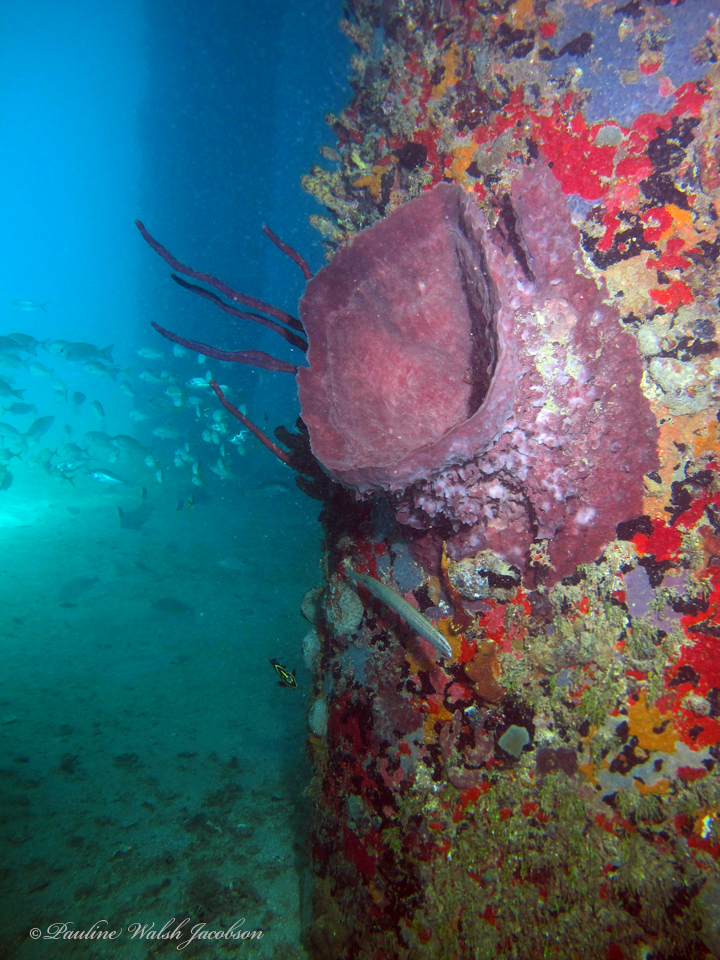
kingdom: Animalia
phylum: Porifera
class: Demospongiae
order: Haplosclerida
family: Petrosiidae
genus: Xestospongia
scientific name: Xestospongia muta
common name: Giant barrel sponge
